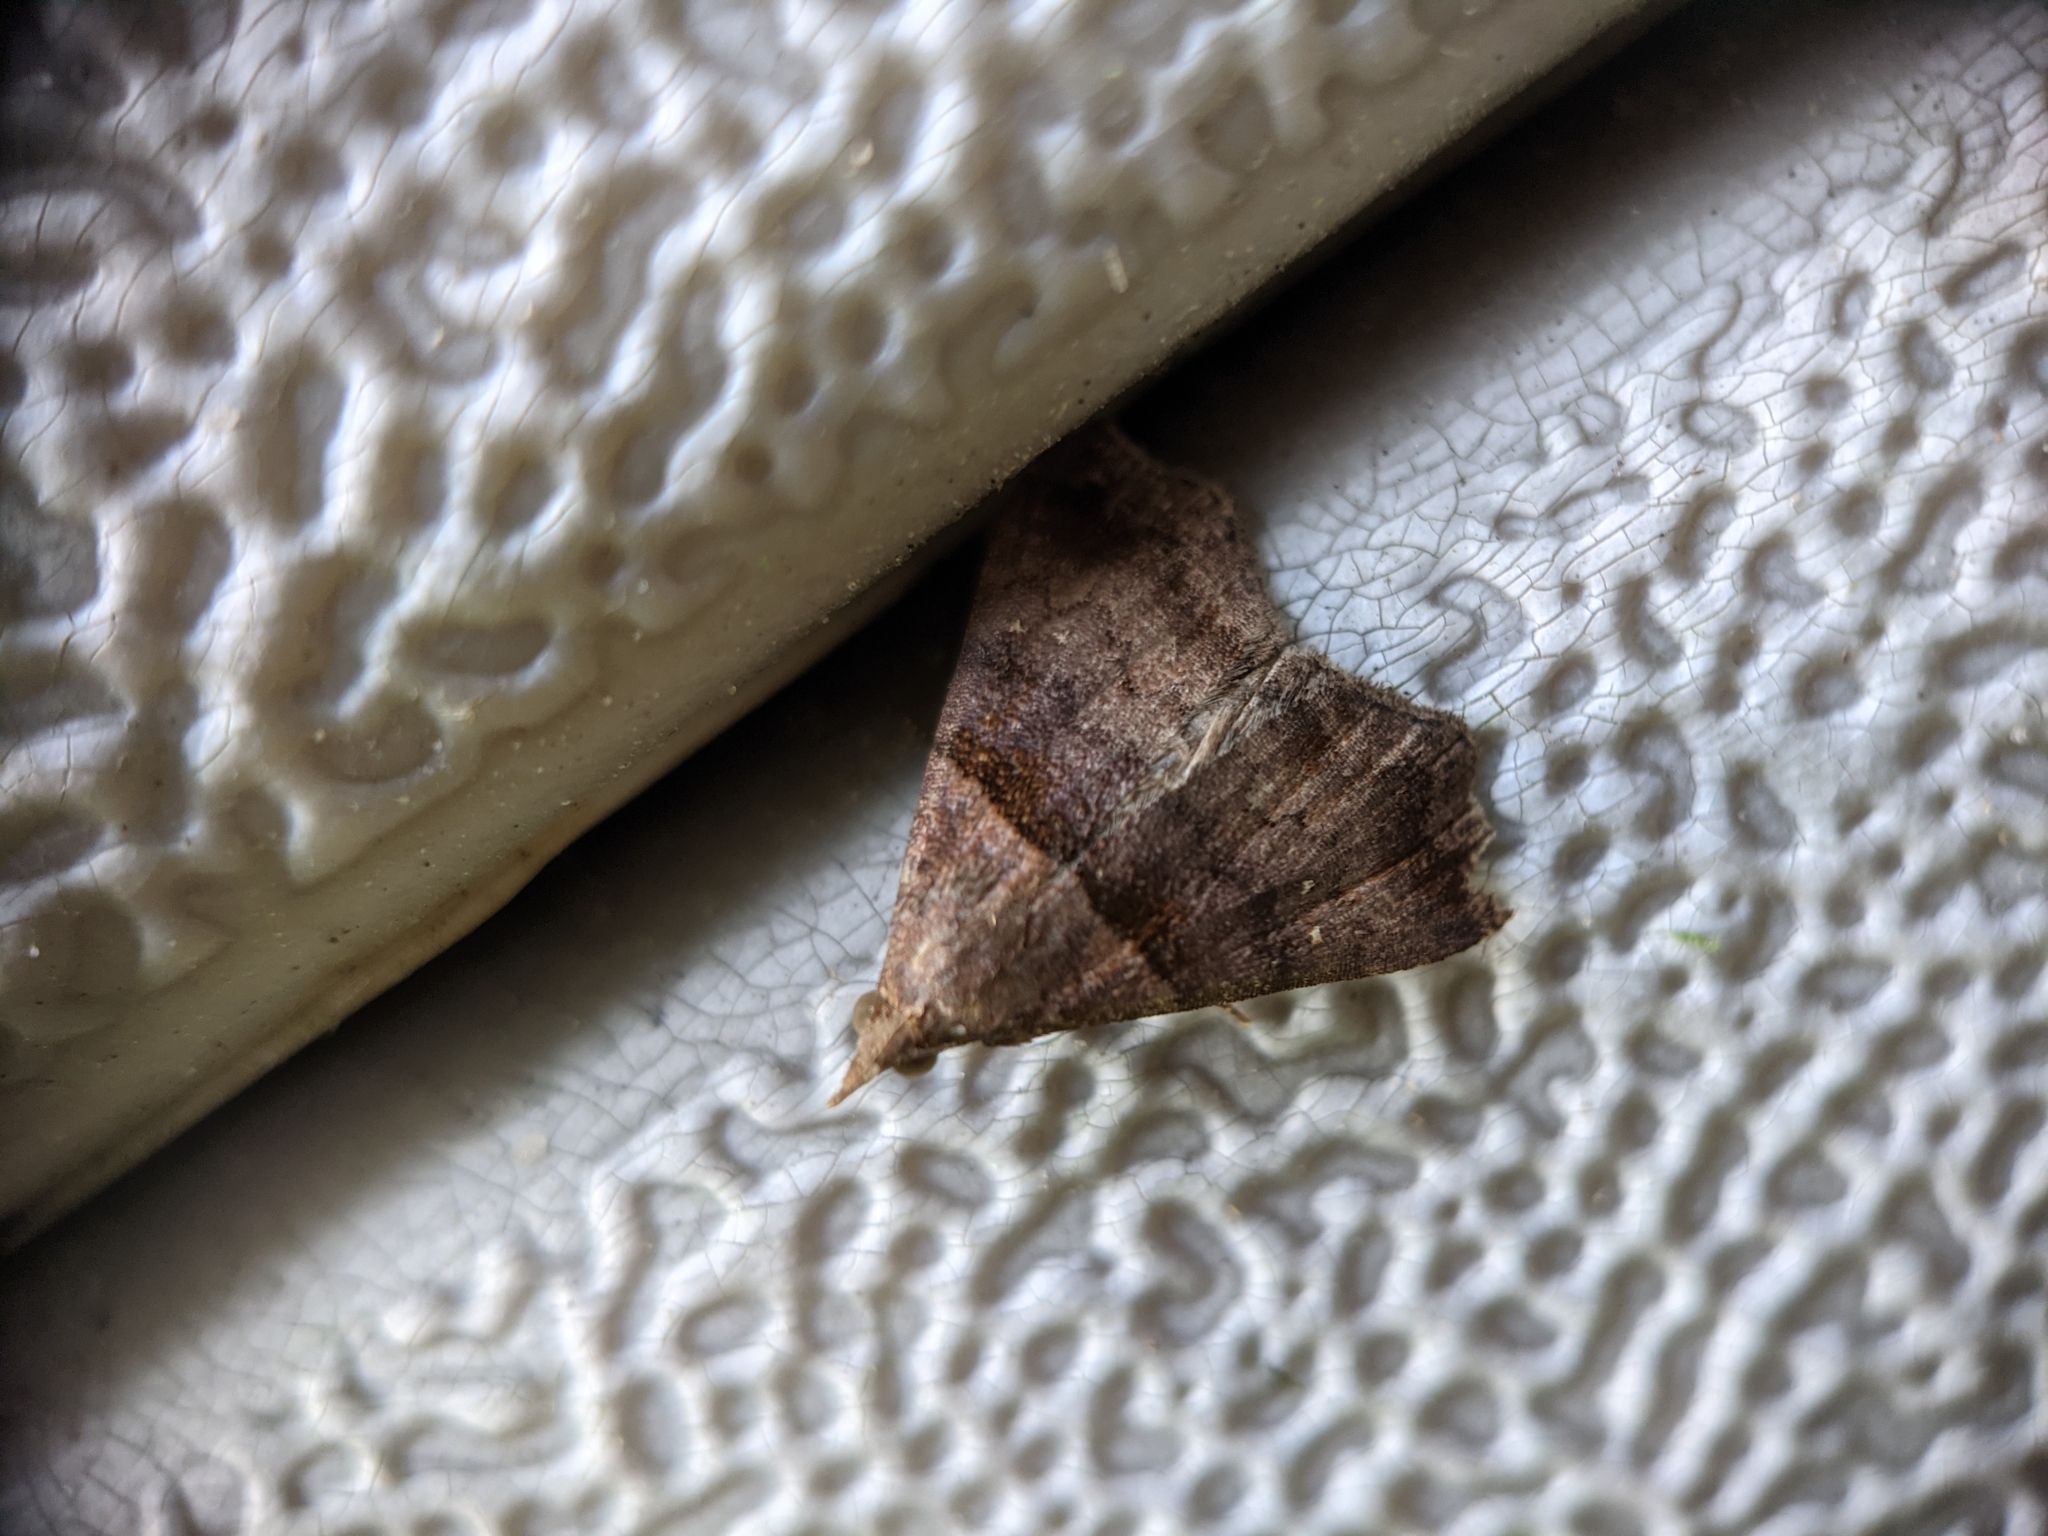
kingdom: Animalia
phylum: Arthropoda
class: Insecta
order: Lepidoptera
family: Erebidae
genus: Lascoria
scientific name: Lascoria ambigualis
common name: Ambiguous moth
